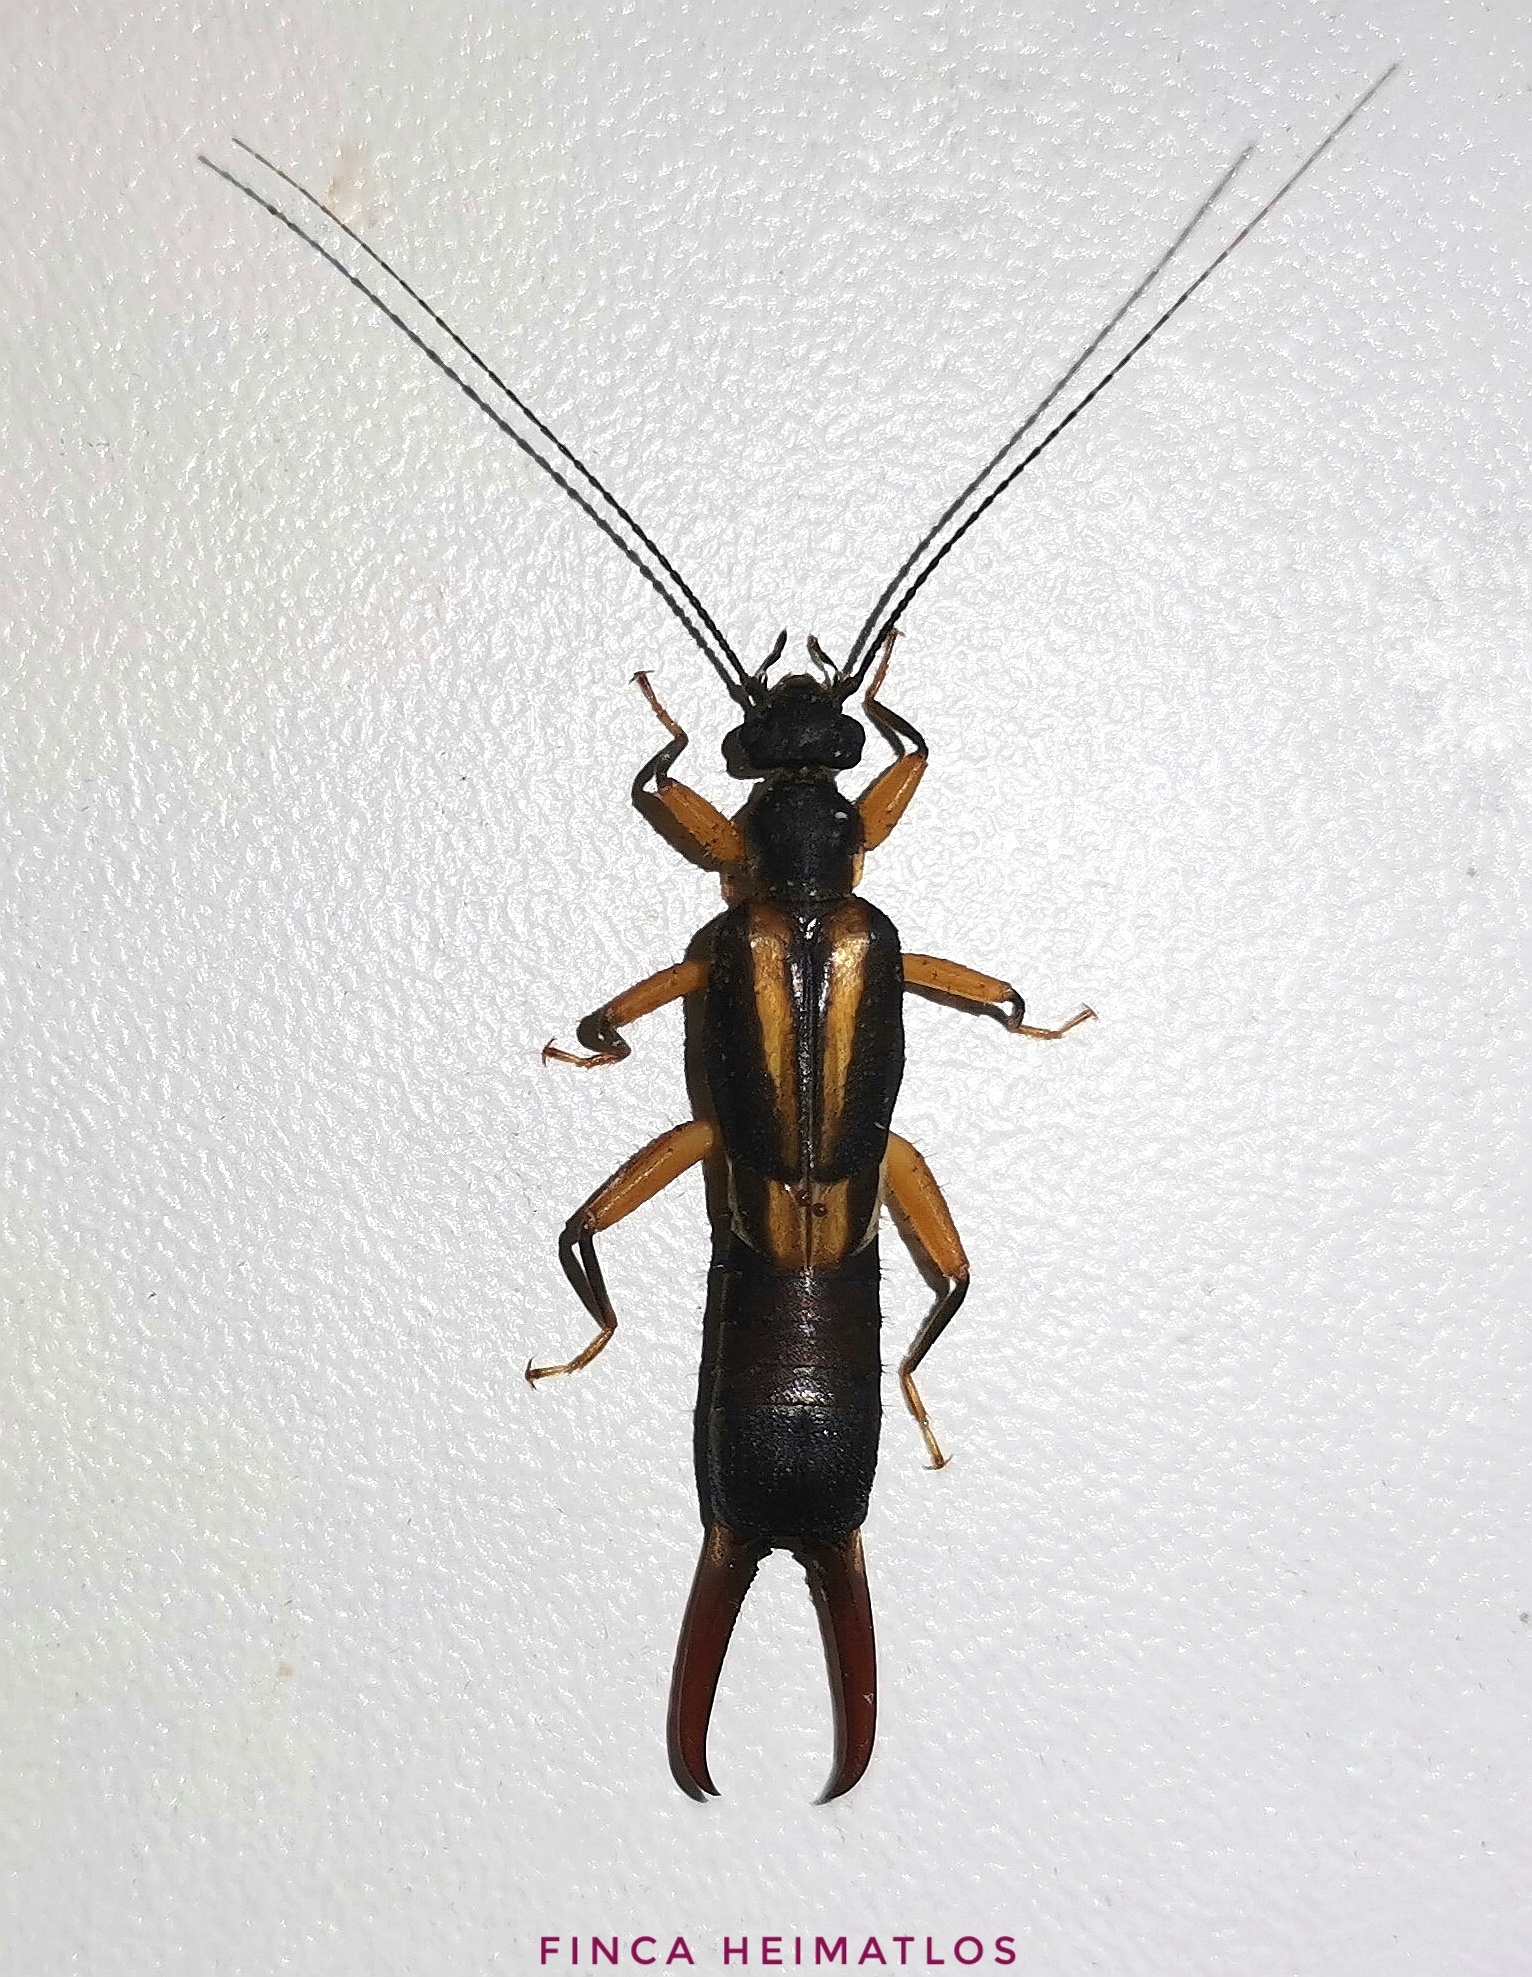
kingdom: Animalia
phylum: Arthropoda
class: Insecta
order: Dermaptera
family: Pygidicranidae
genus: Pyragra
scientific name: Pyragra fuscata
